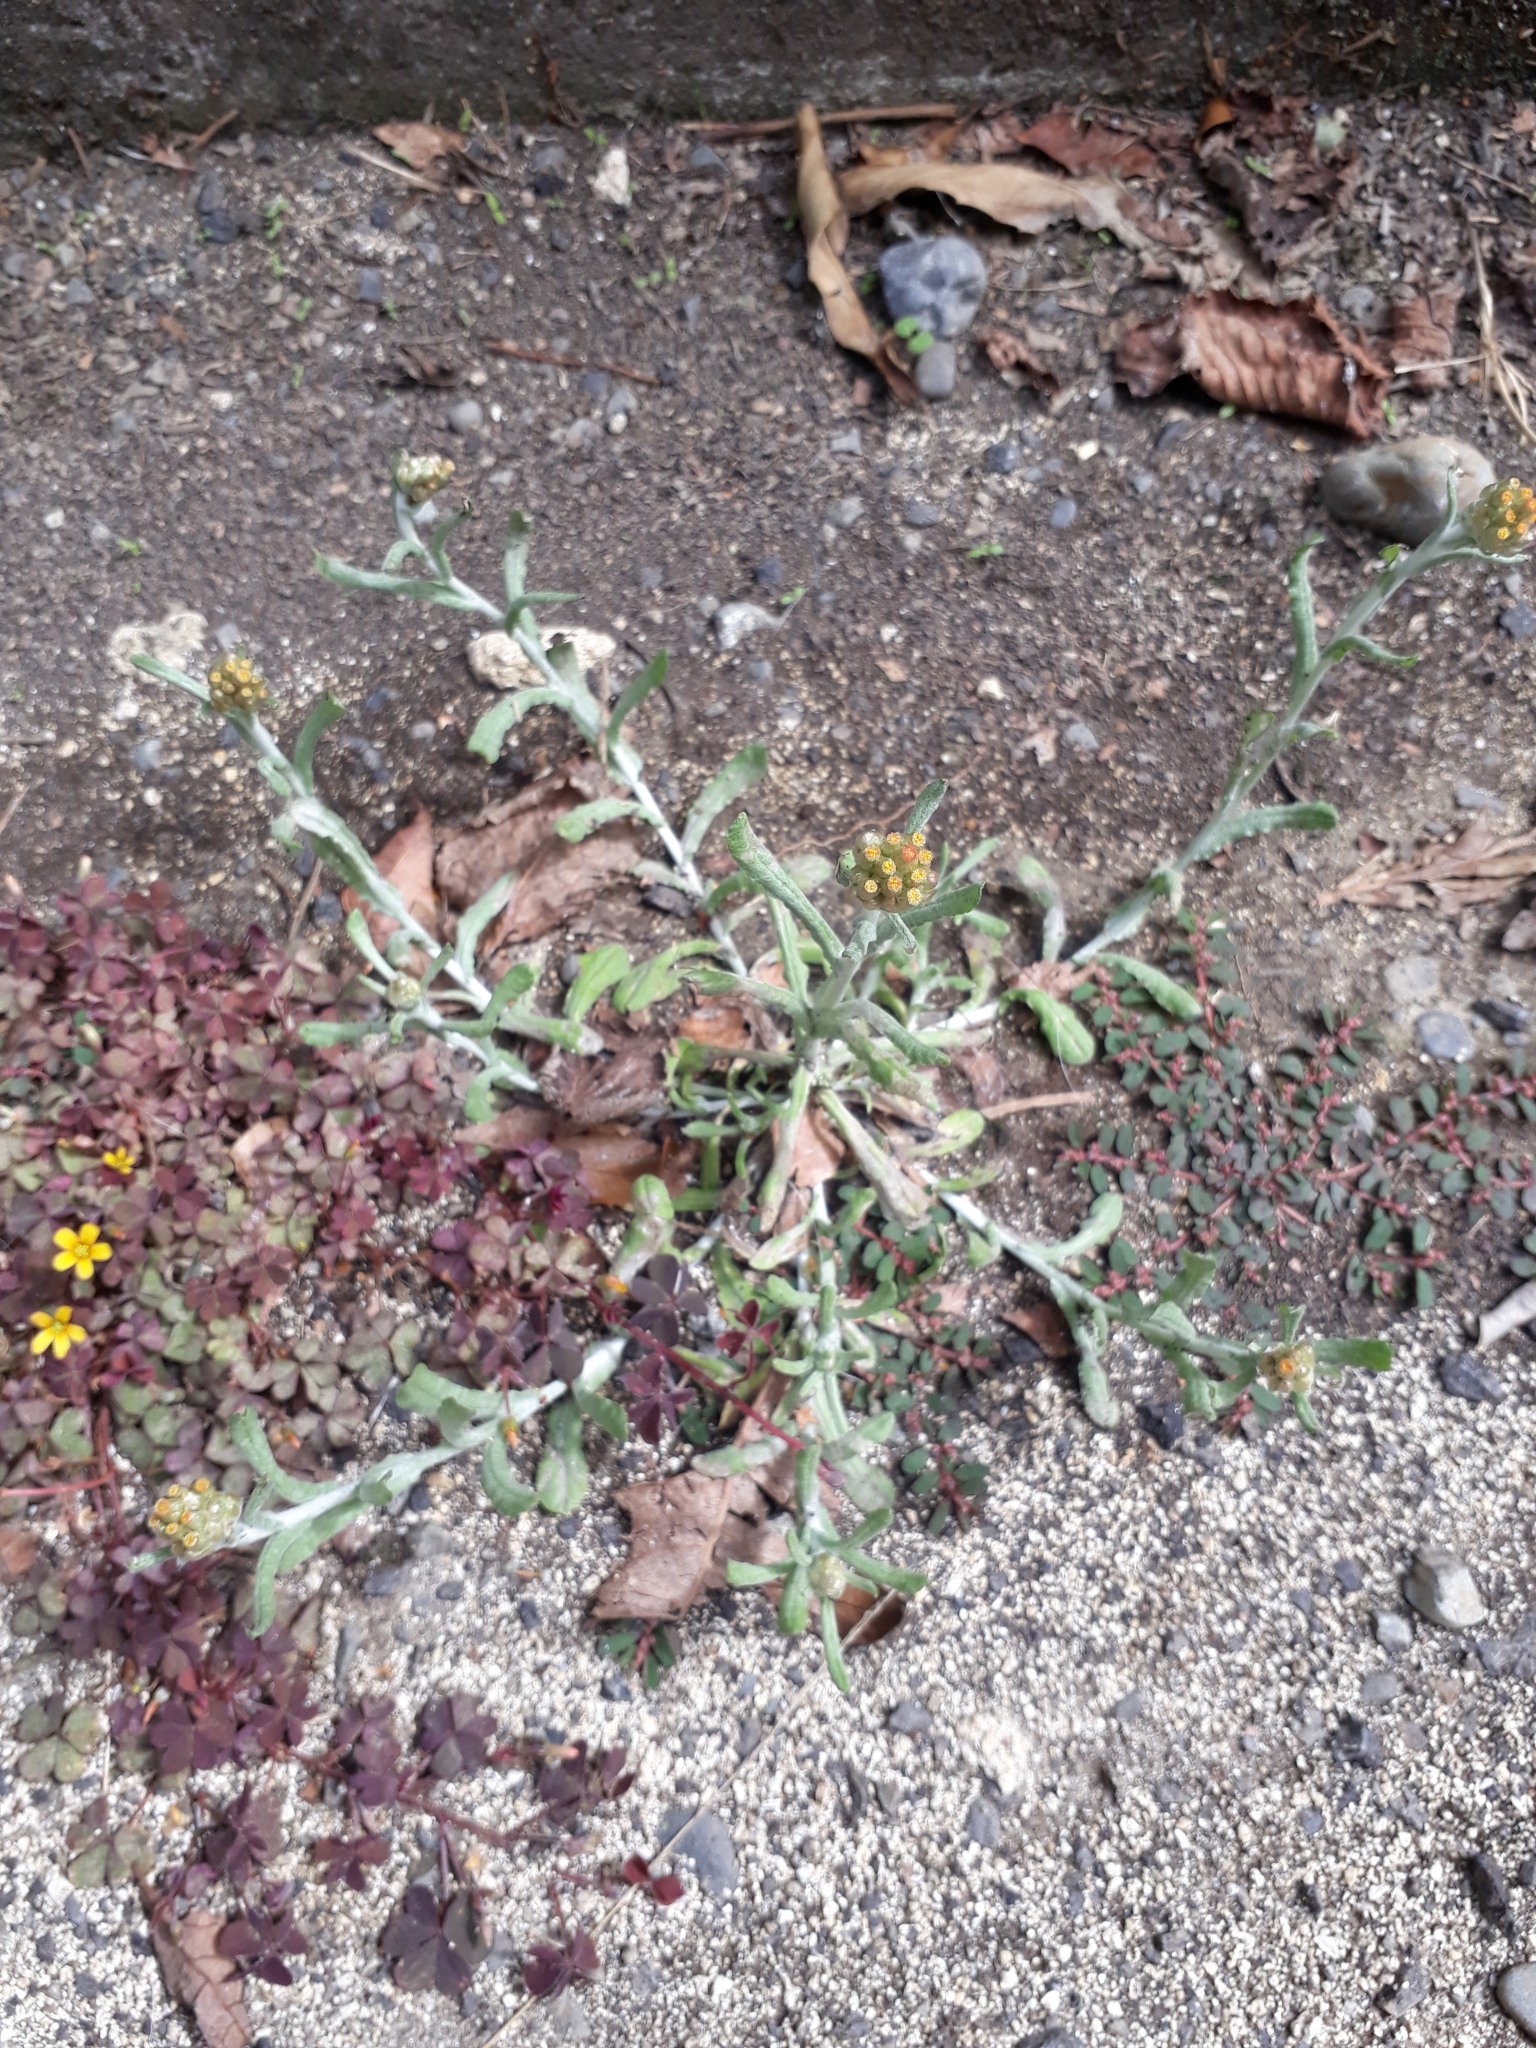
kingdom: Plantae
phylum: Tracheophyta
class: Magnoliopsida
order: Asterales
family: Asteraceae
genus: Helichrysum
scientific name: Helichrysum luteoalbum
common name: Daisy
